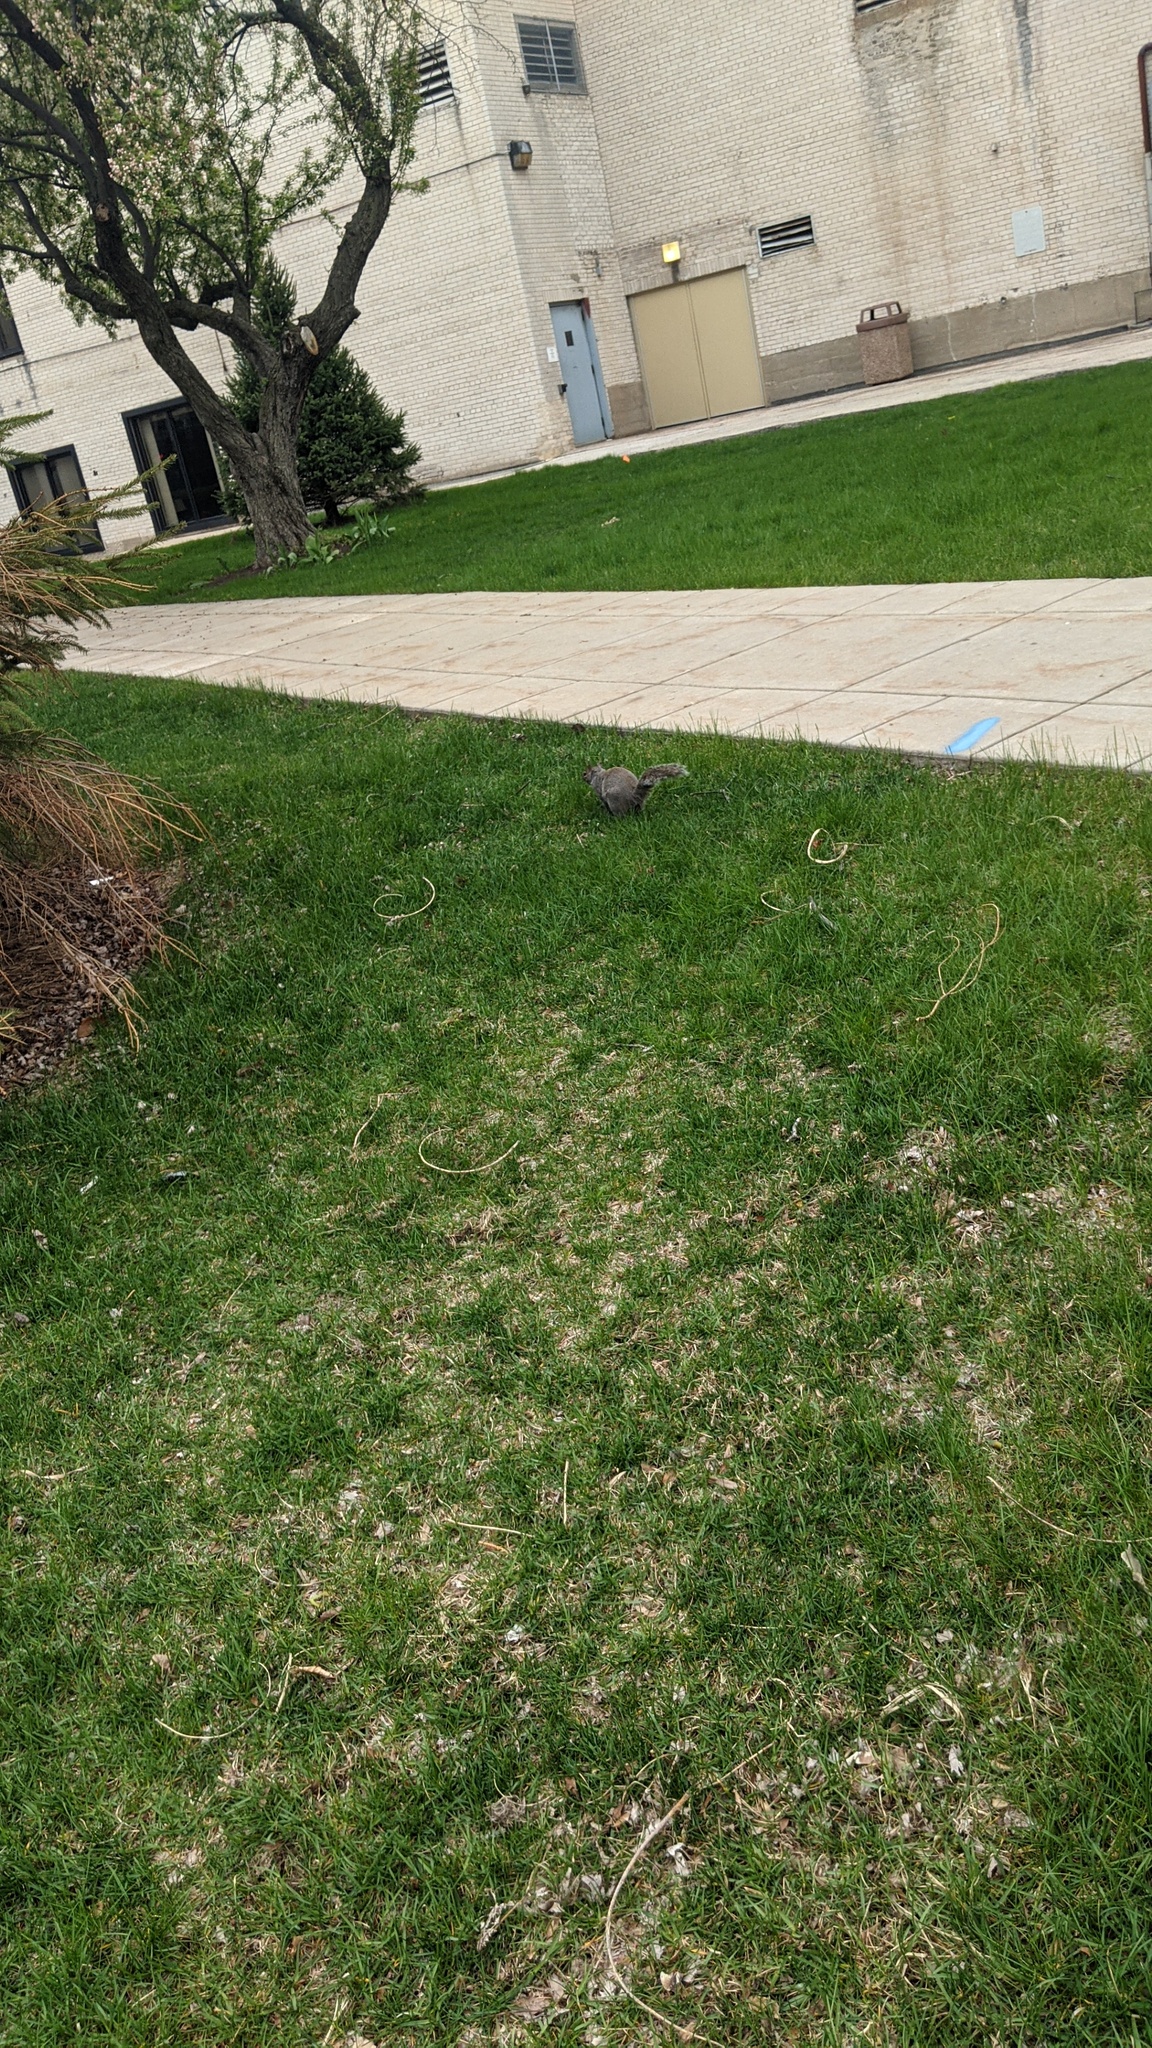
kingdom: Animalia
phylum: Chordata
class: Mammalia
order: Rodentia
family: Sciuridae
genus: Sciurus
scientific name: Sciurus carolinensis
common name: Eastern gray squirrel
